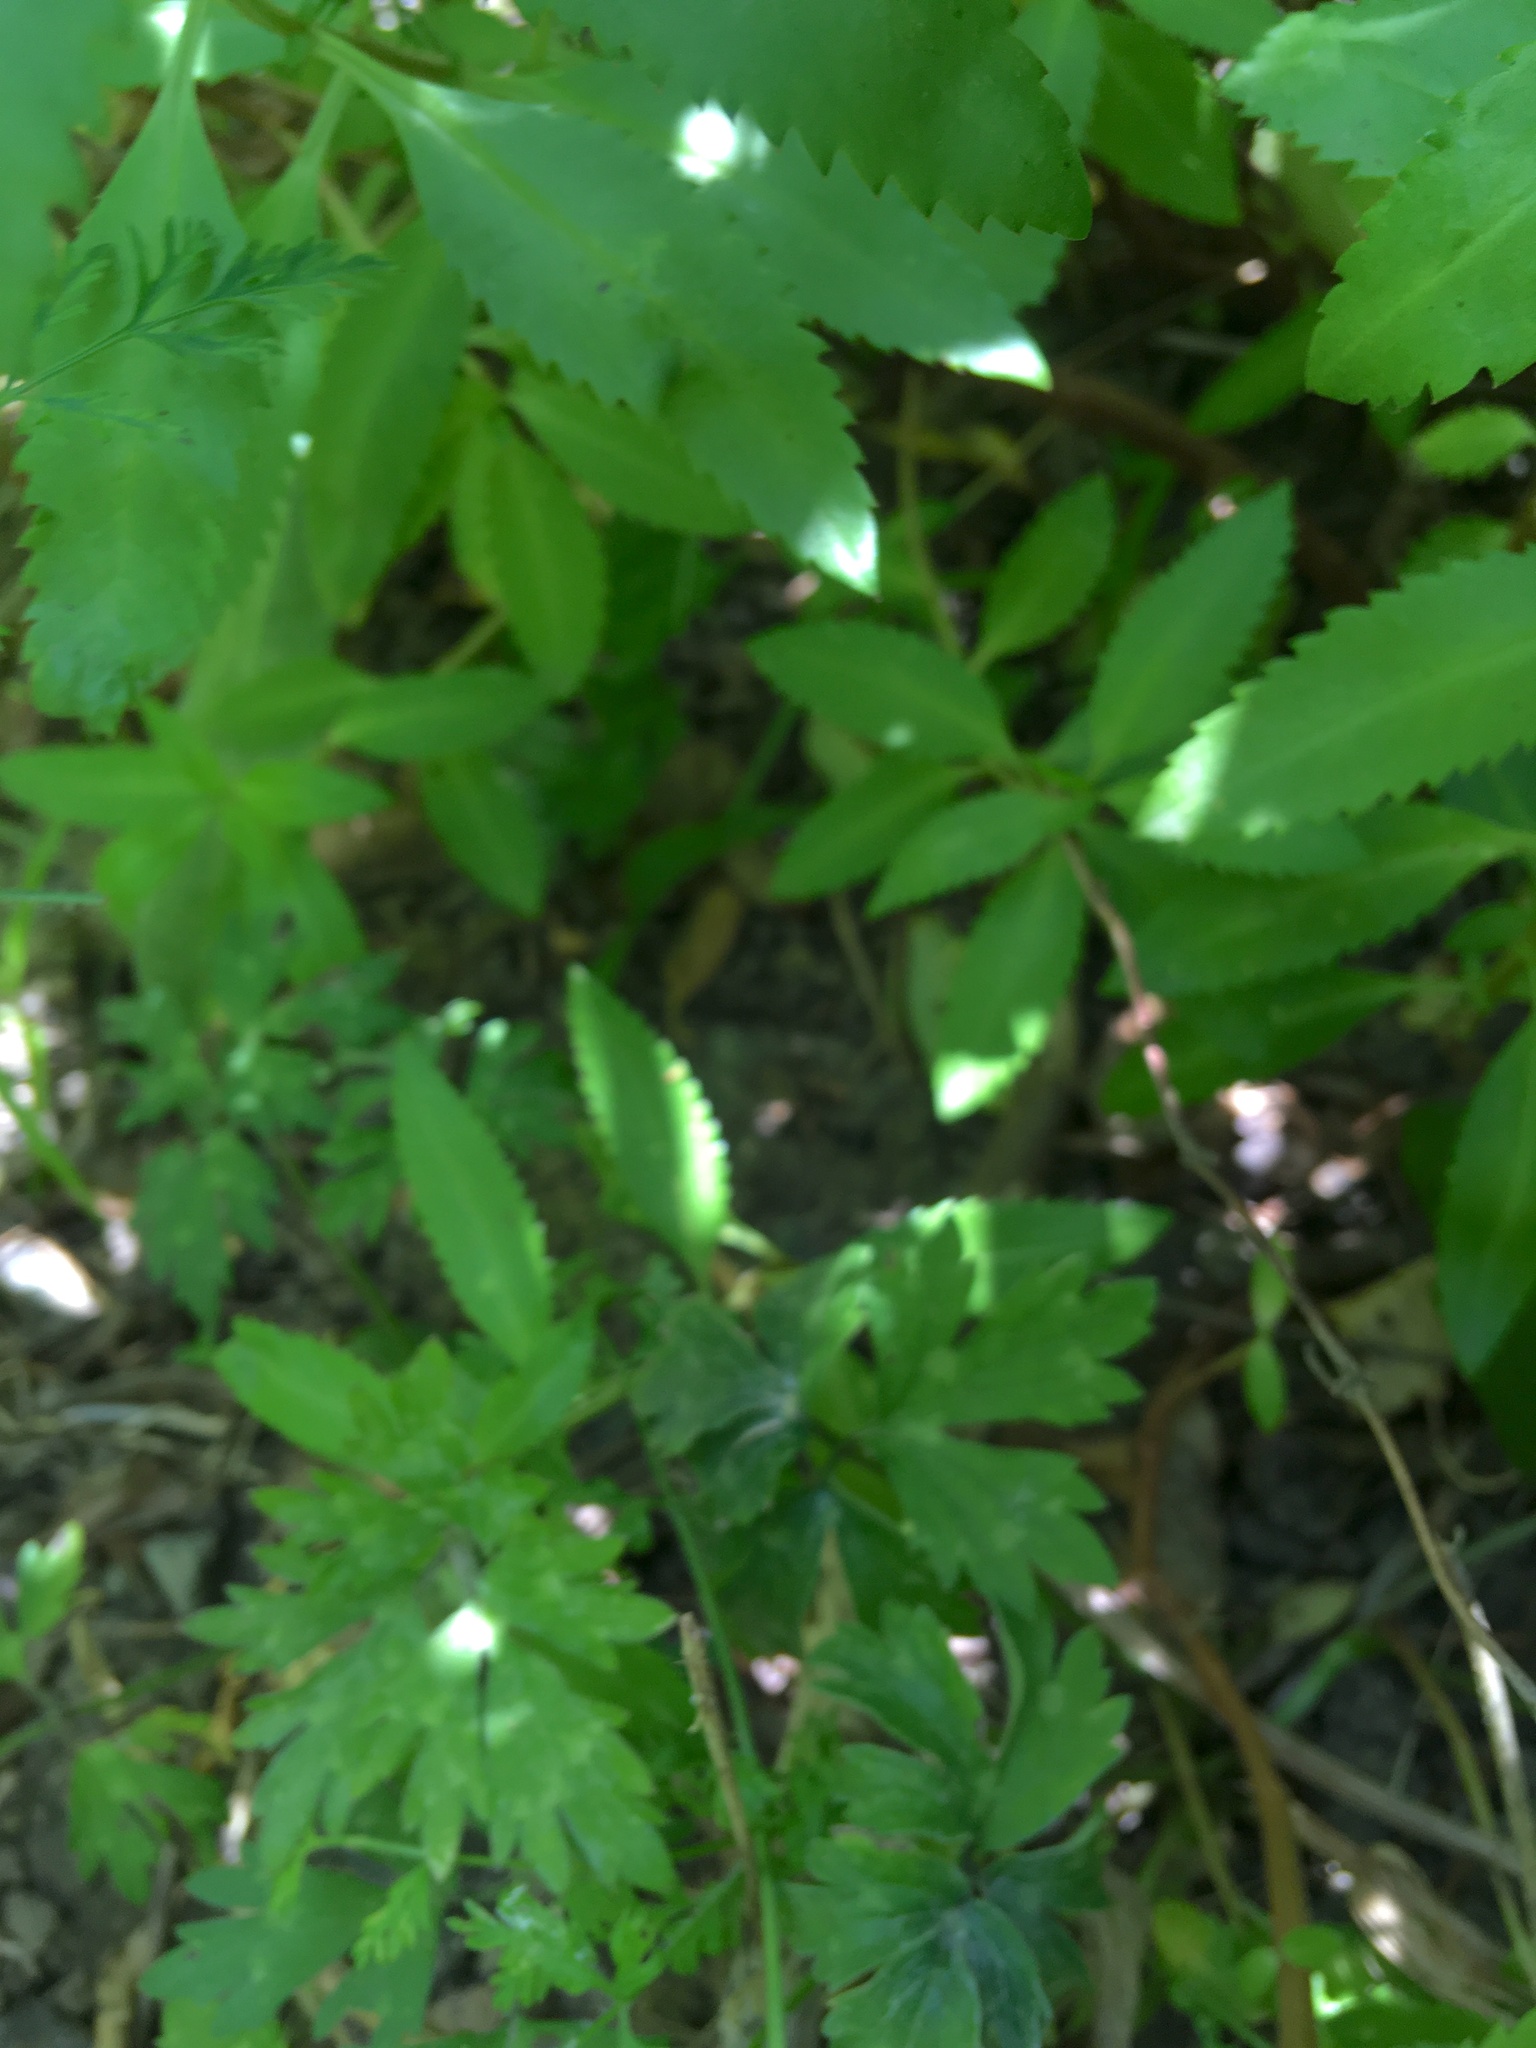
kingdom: Plantae
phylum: Tracheophyta
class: Magnoliopsida
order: Ranunculales
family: Ranunculaceae
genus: Ranunculus
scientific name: Ranunculus repens
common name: Creeping buttercup
